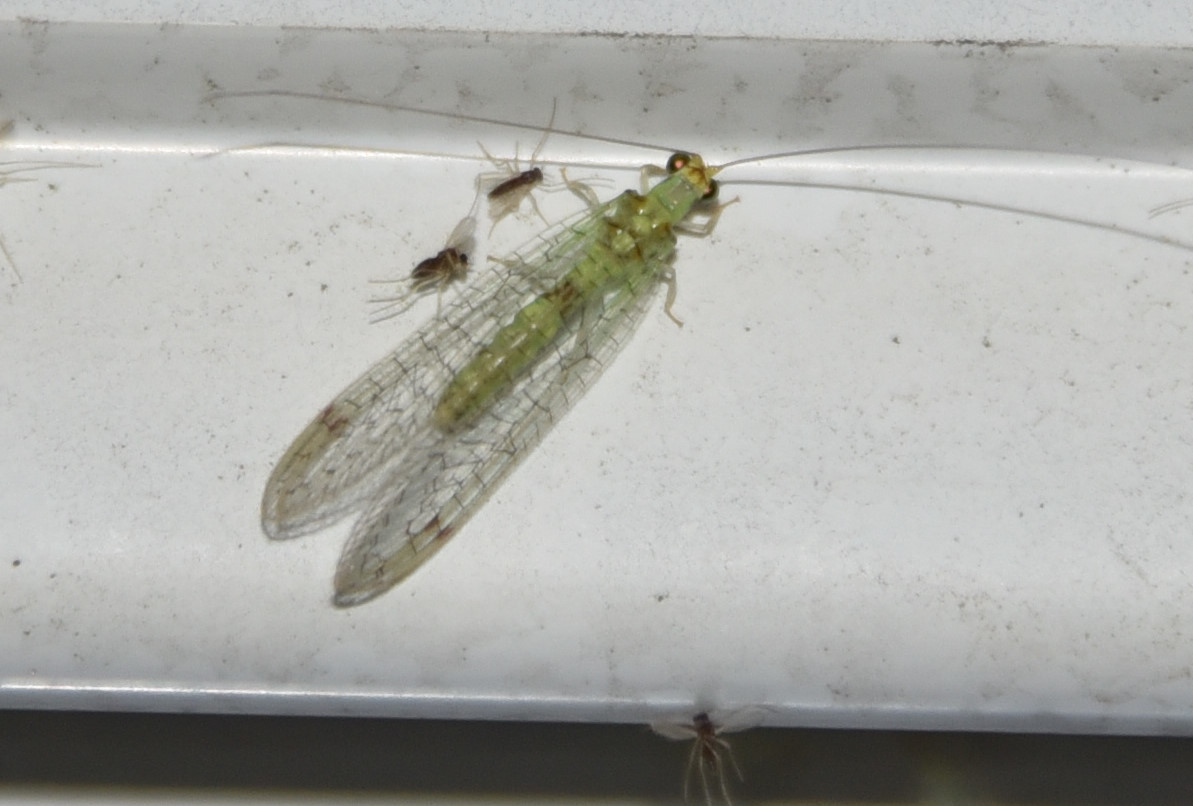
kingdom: Animalia
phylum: Arthropoda
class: Insecta
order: Neuroptera
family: Chrysopidae
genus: Leucochrysa
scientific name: Leucochrysa americana
